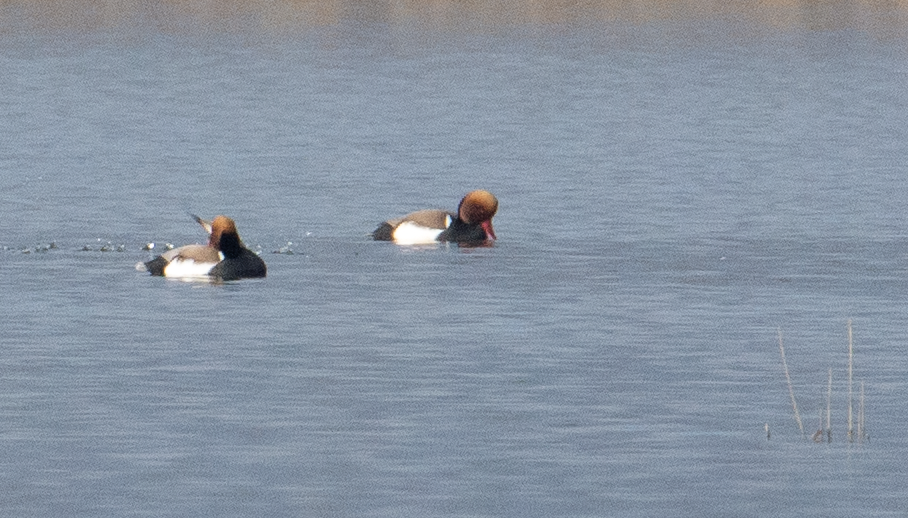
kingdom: Animalia
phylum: Chordata
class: Aves
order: Anseriformes
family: Anatidae
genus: Netta
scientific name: Netta rufina
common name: Red-crested pochard
